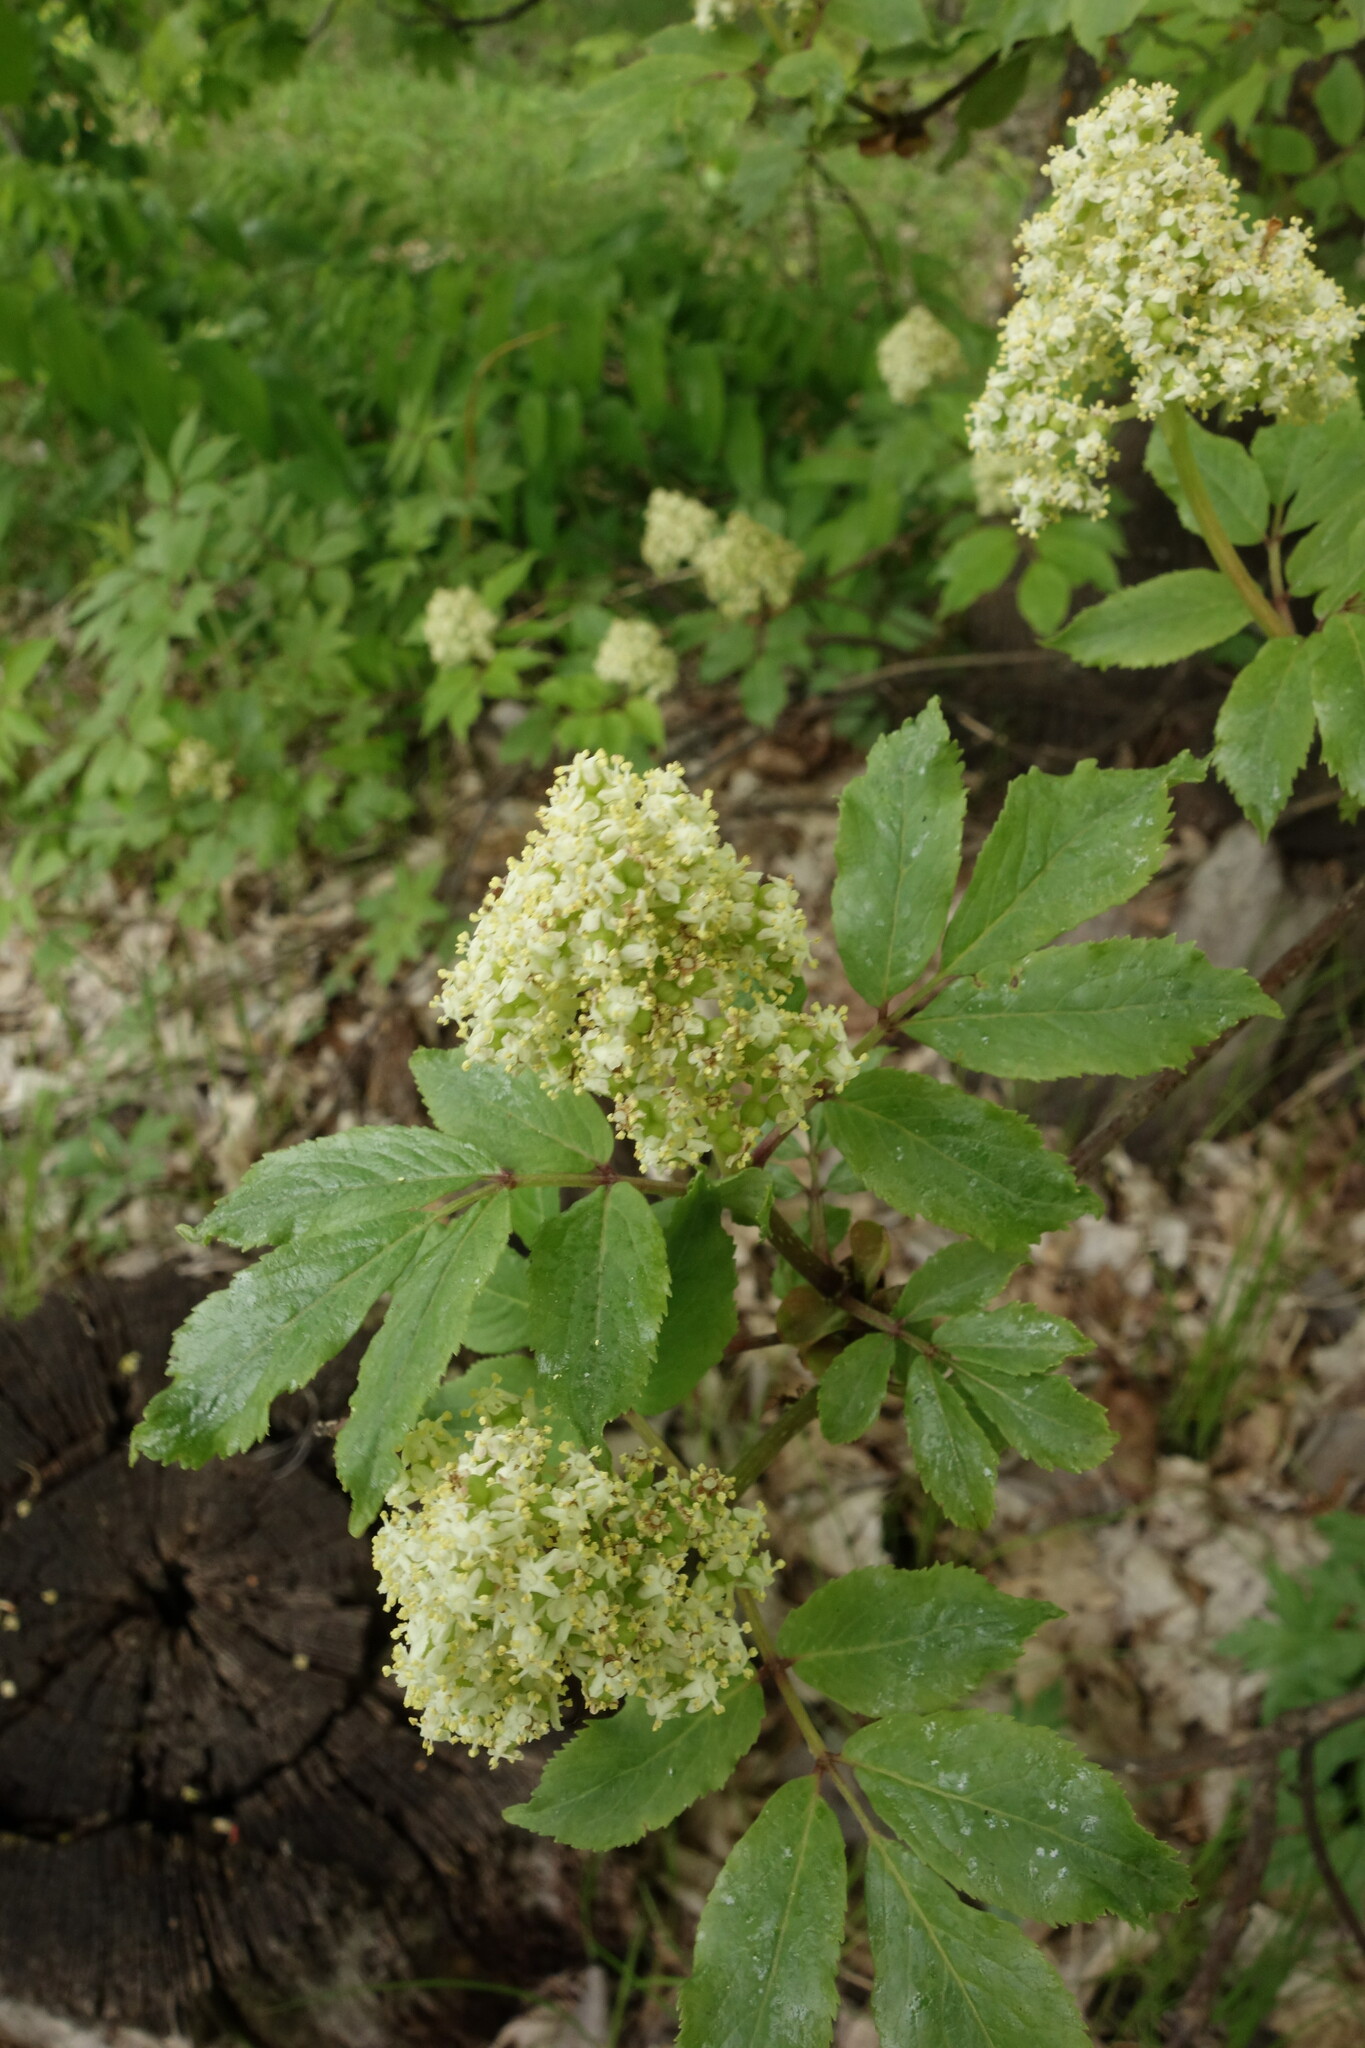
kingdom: Plantae
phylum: Tracheophyta
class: Magnoliopsida
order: Dipsacales
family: Viburnaceae
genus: Sambucus
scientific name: Sambucus racemosa
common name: Red-berried elder
